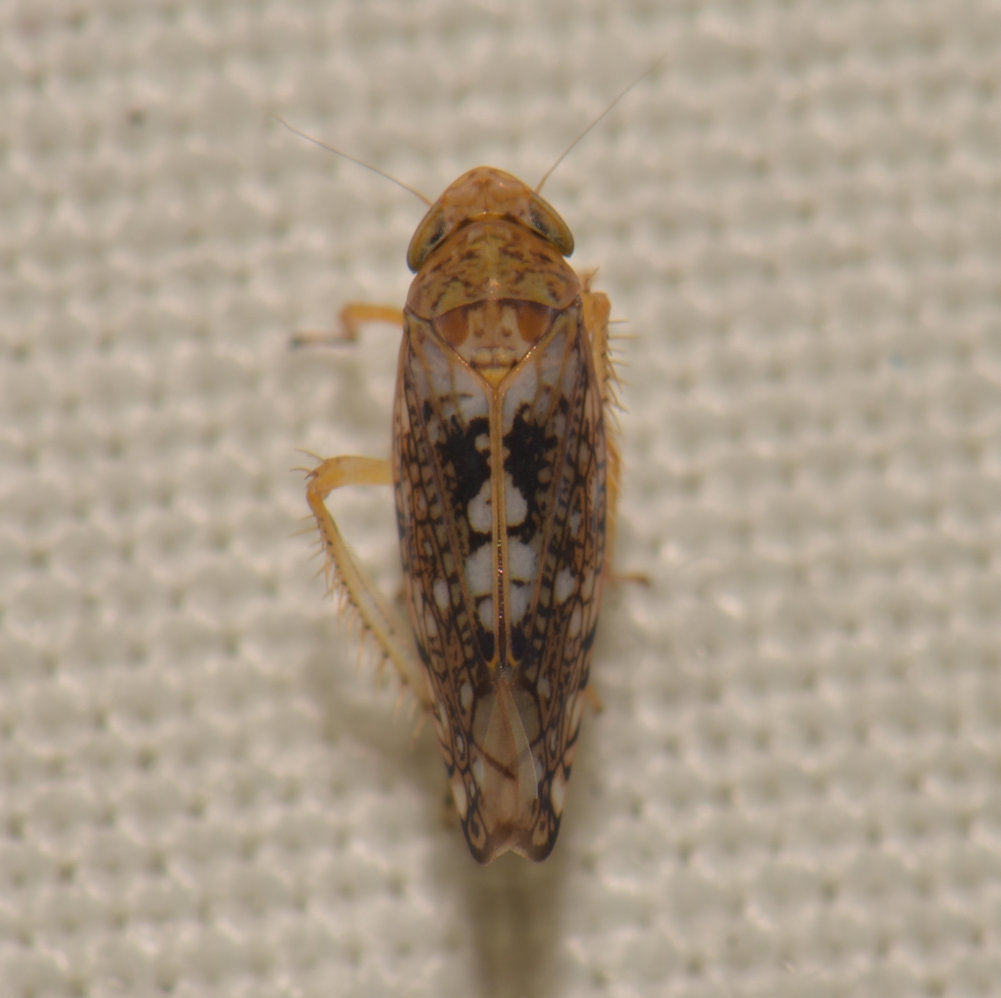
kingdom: Animalia
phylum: Arthropoda
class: Insecta
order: Hemiptera
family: Cicadellidae
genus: Prescottia
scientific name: Prescottia lobata
